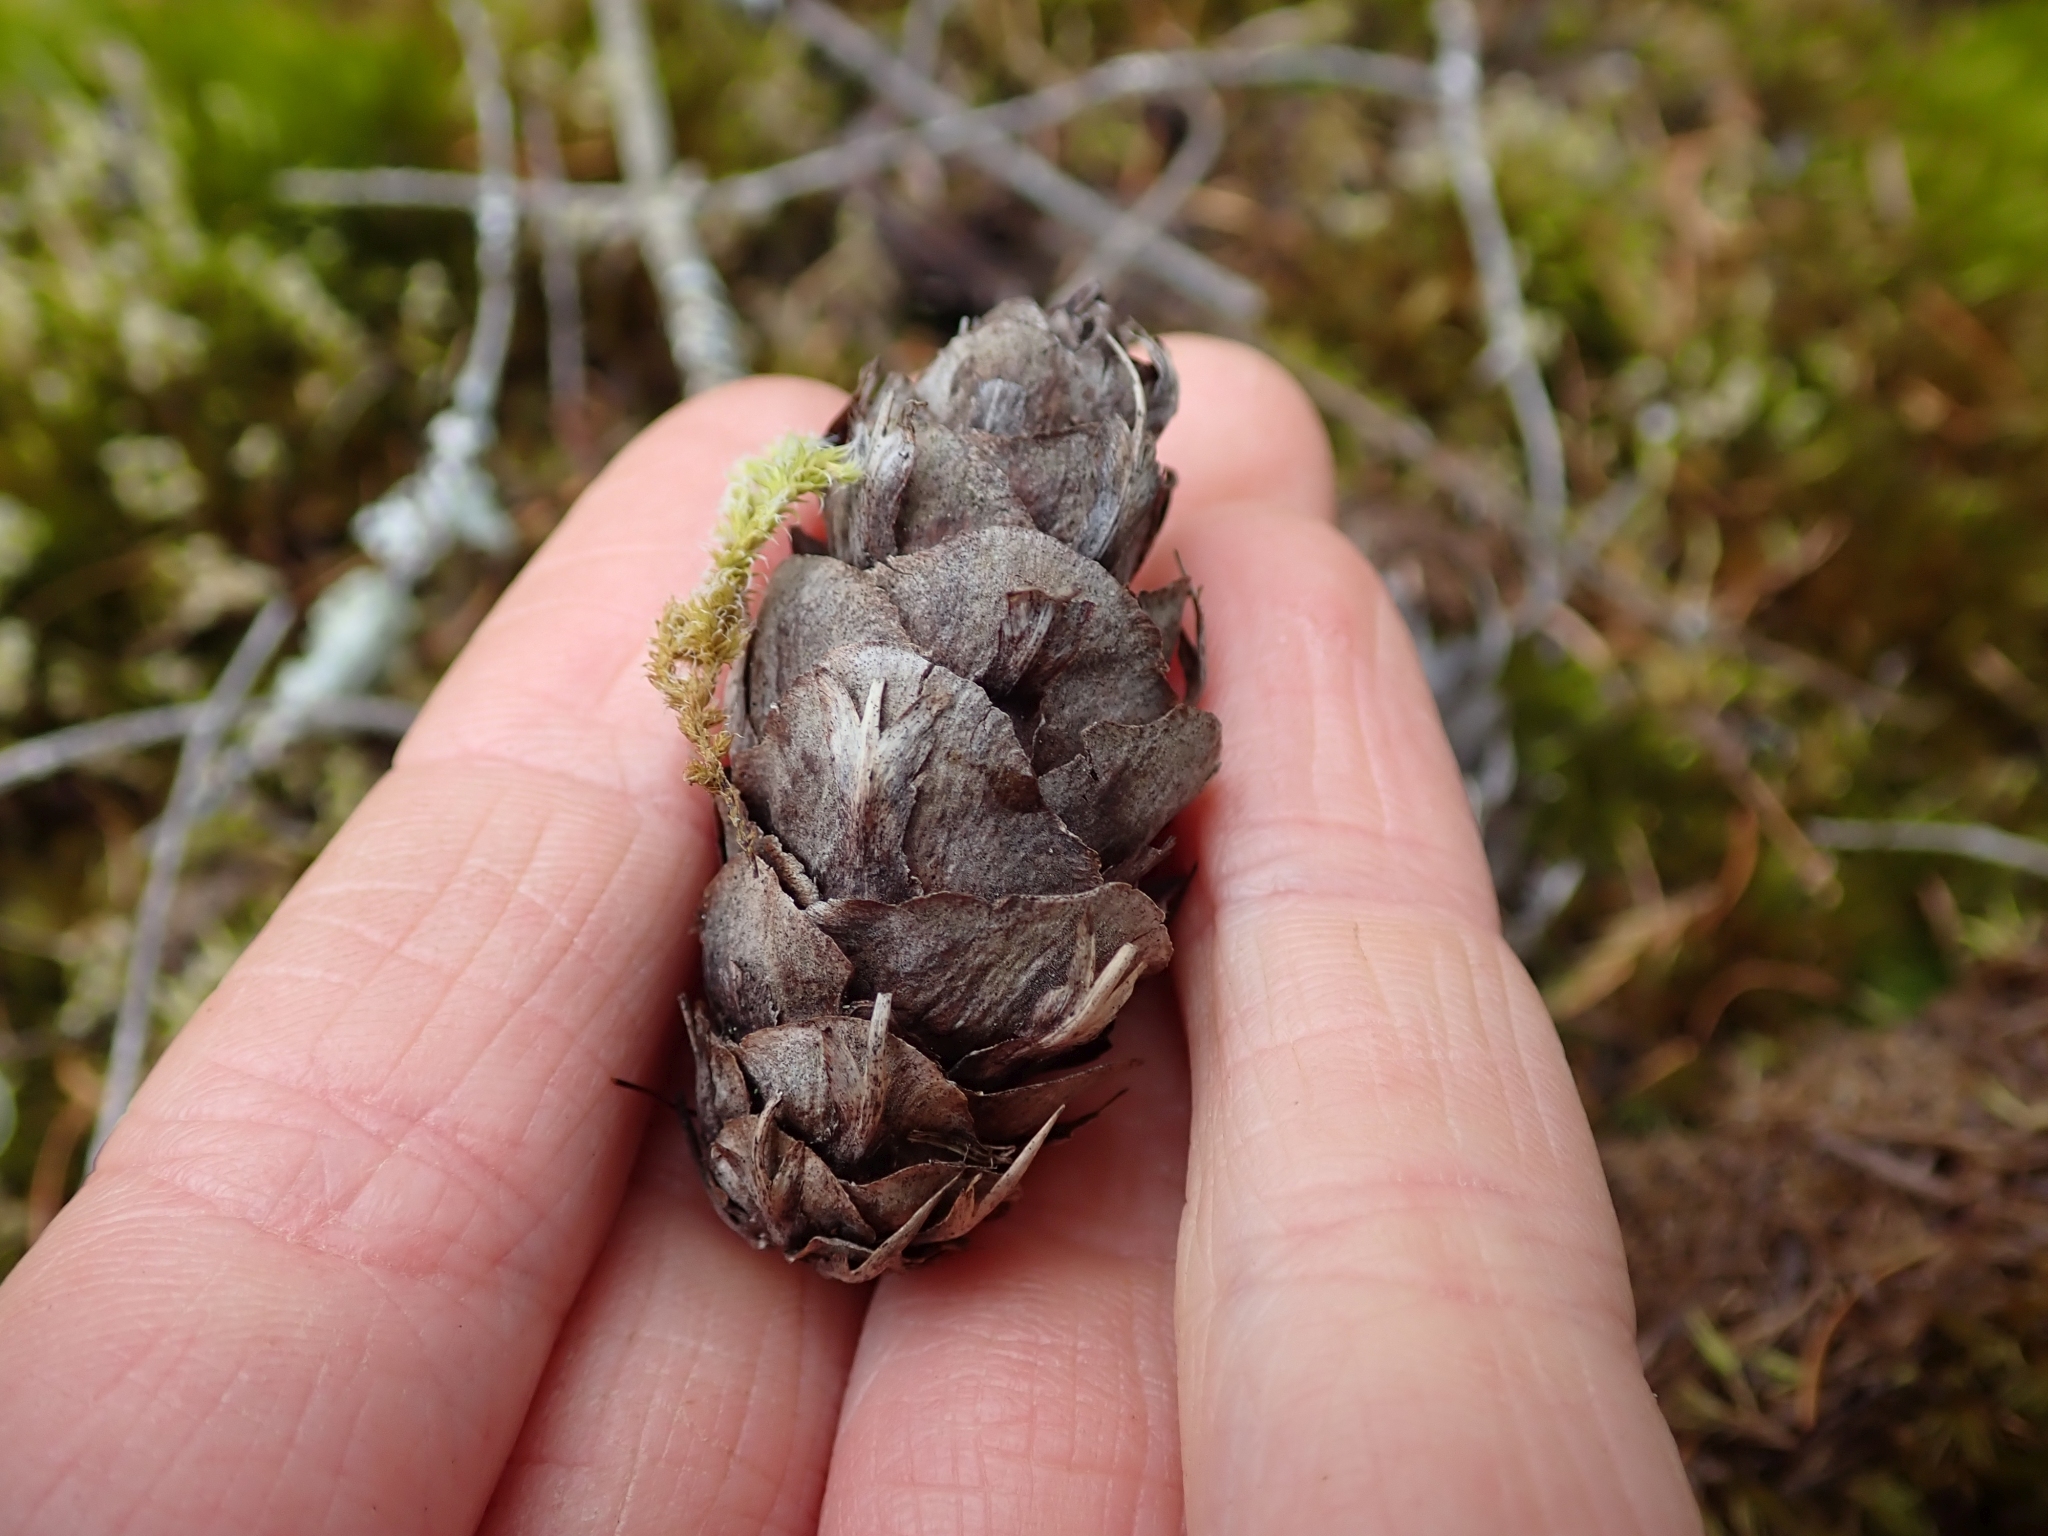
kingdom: Plantae
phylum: Tracheophyta
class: Pinopsida
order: Pinales
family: Pinaceae
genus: Pseudotsuga
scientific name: Pseudotsuga menziesii
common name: Douglas fir
